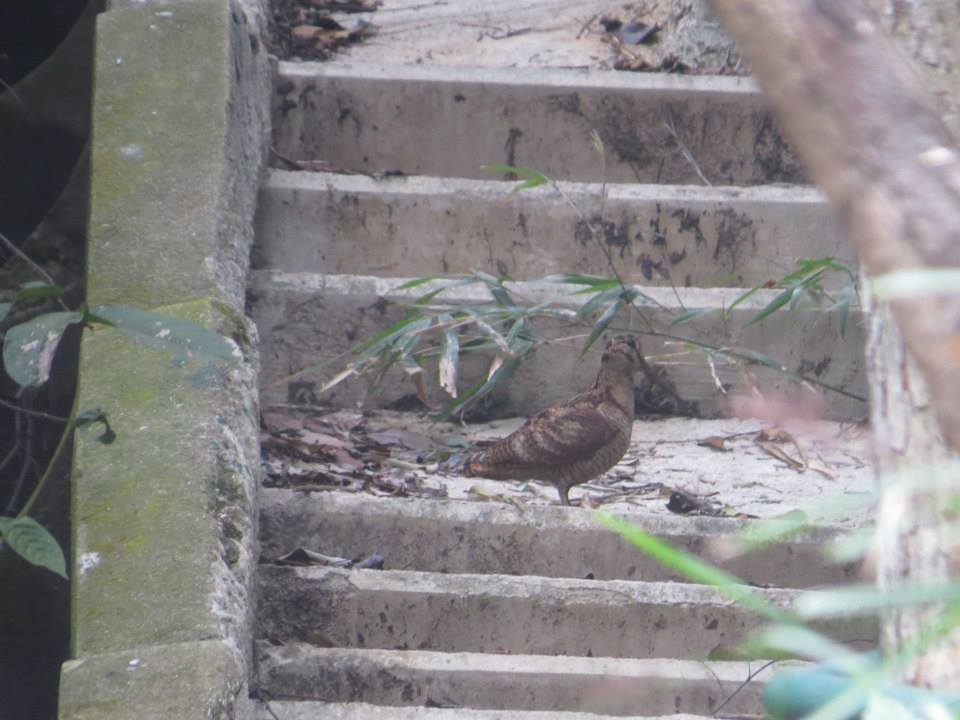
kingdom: Animalia
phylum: Chordata
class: Aves
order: Charadriiformes
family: Scolopacidae
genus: Scolopax
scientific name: Scolopax rusticola
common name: Eurasian woodcock
